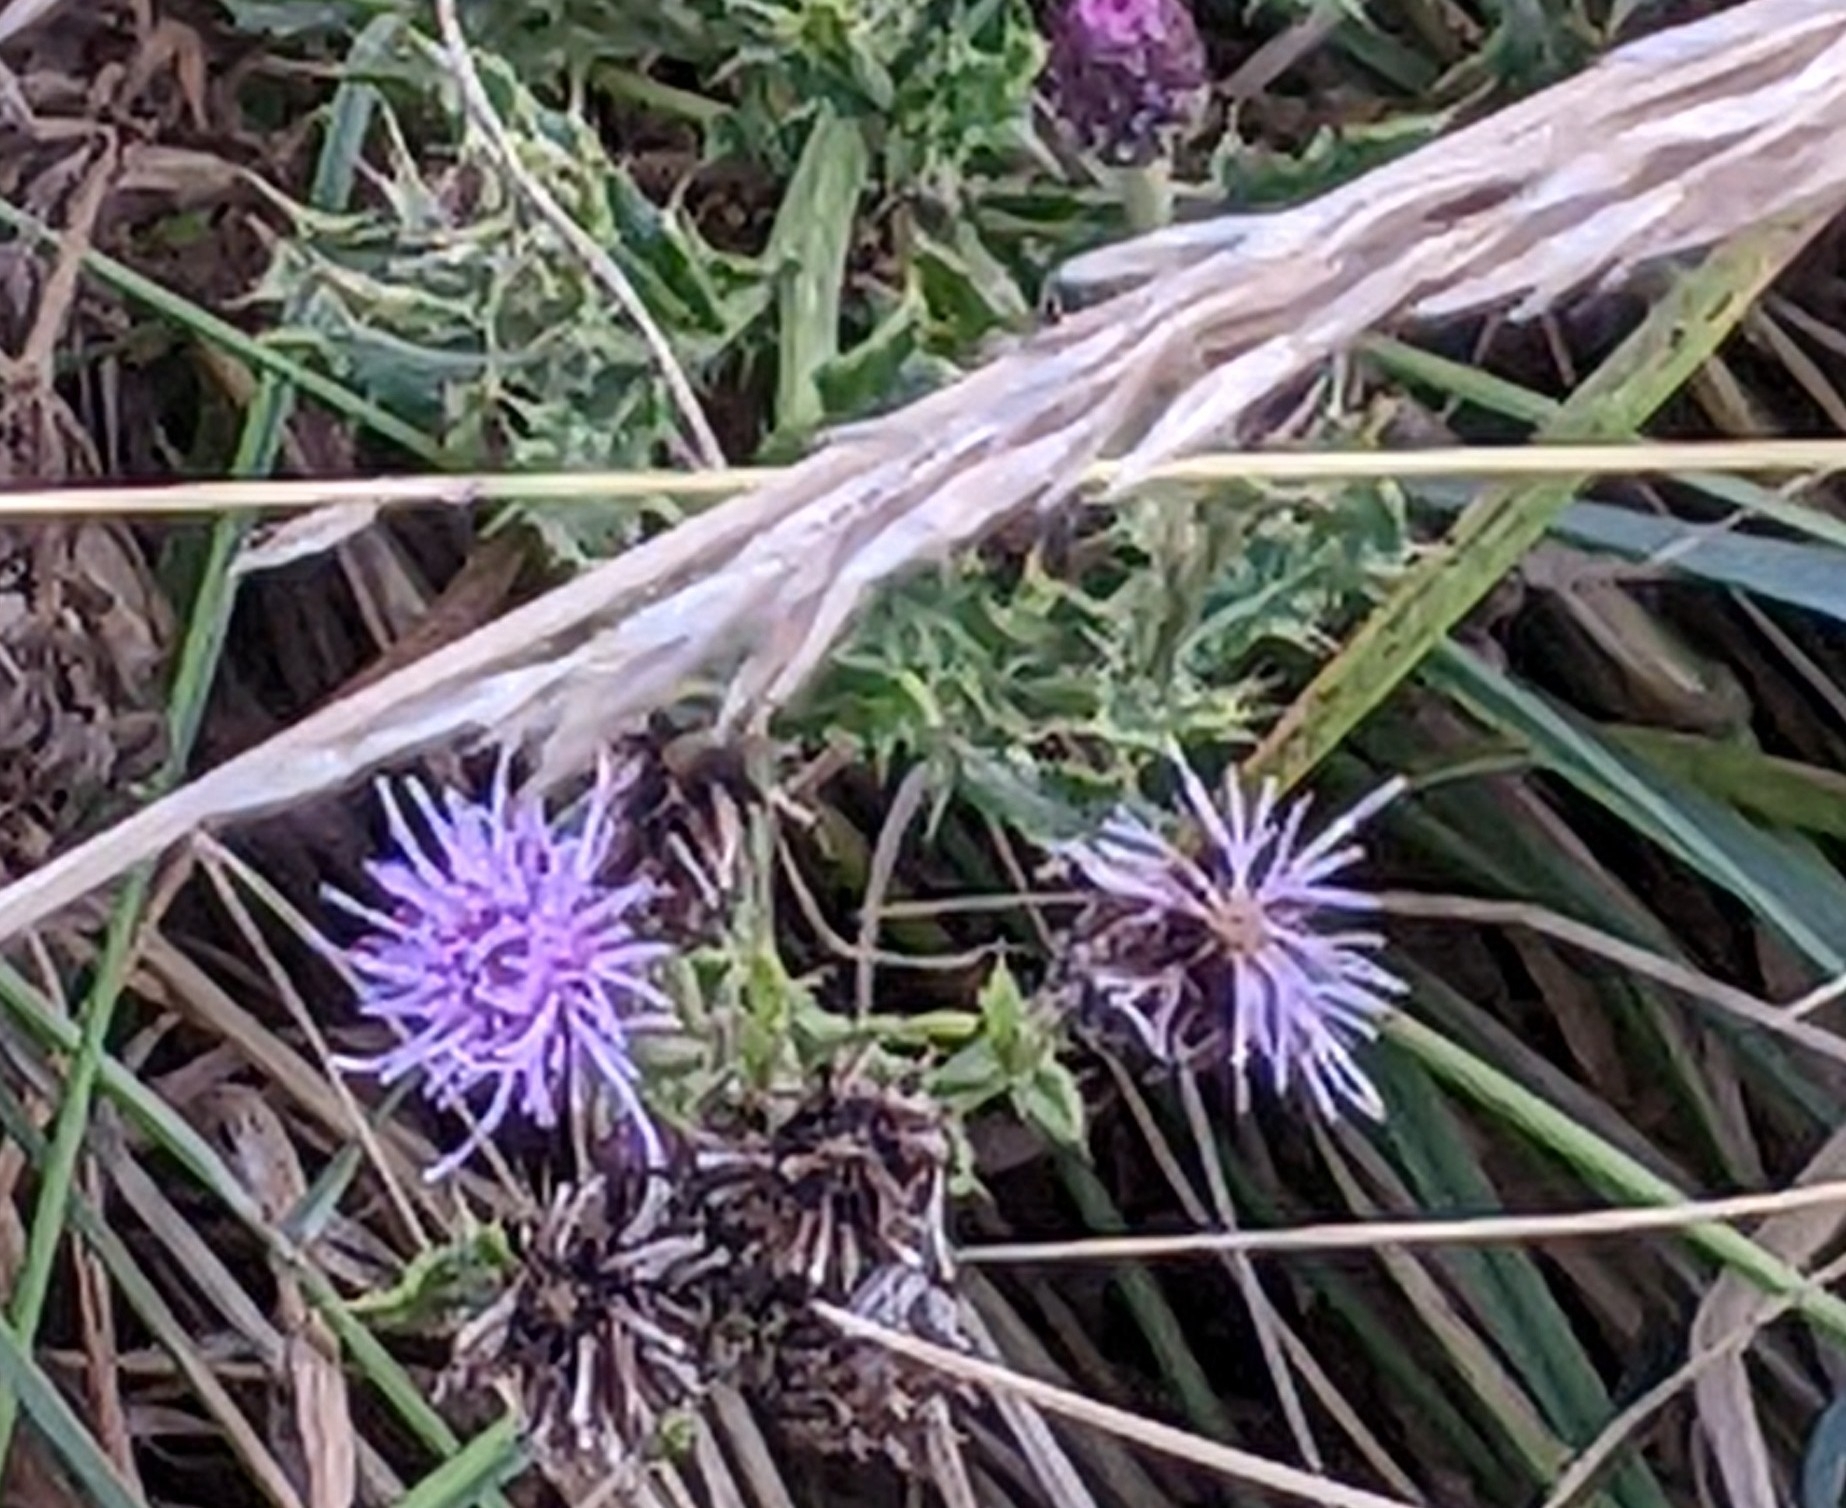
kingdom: Plantae
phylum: Tracheophyta
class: Magnoliopsida
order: Asterales
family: Asteraceae
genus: Cirsium
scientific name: Cirsium arvense
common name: Creeping thistle
